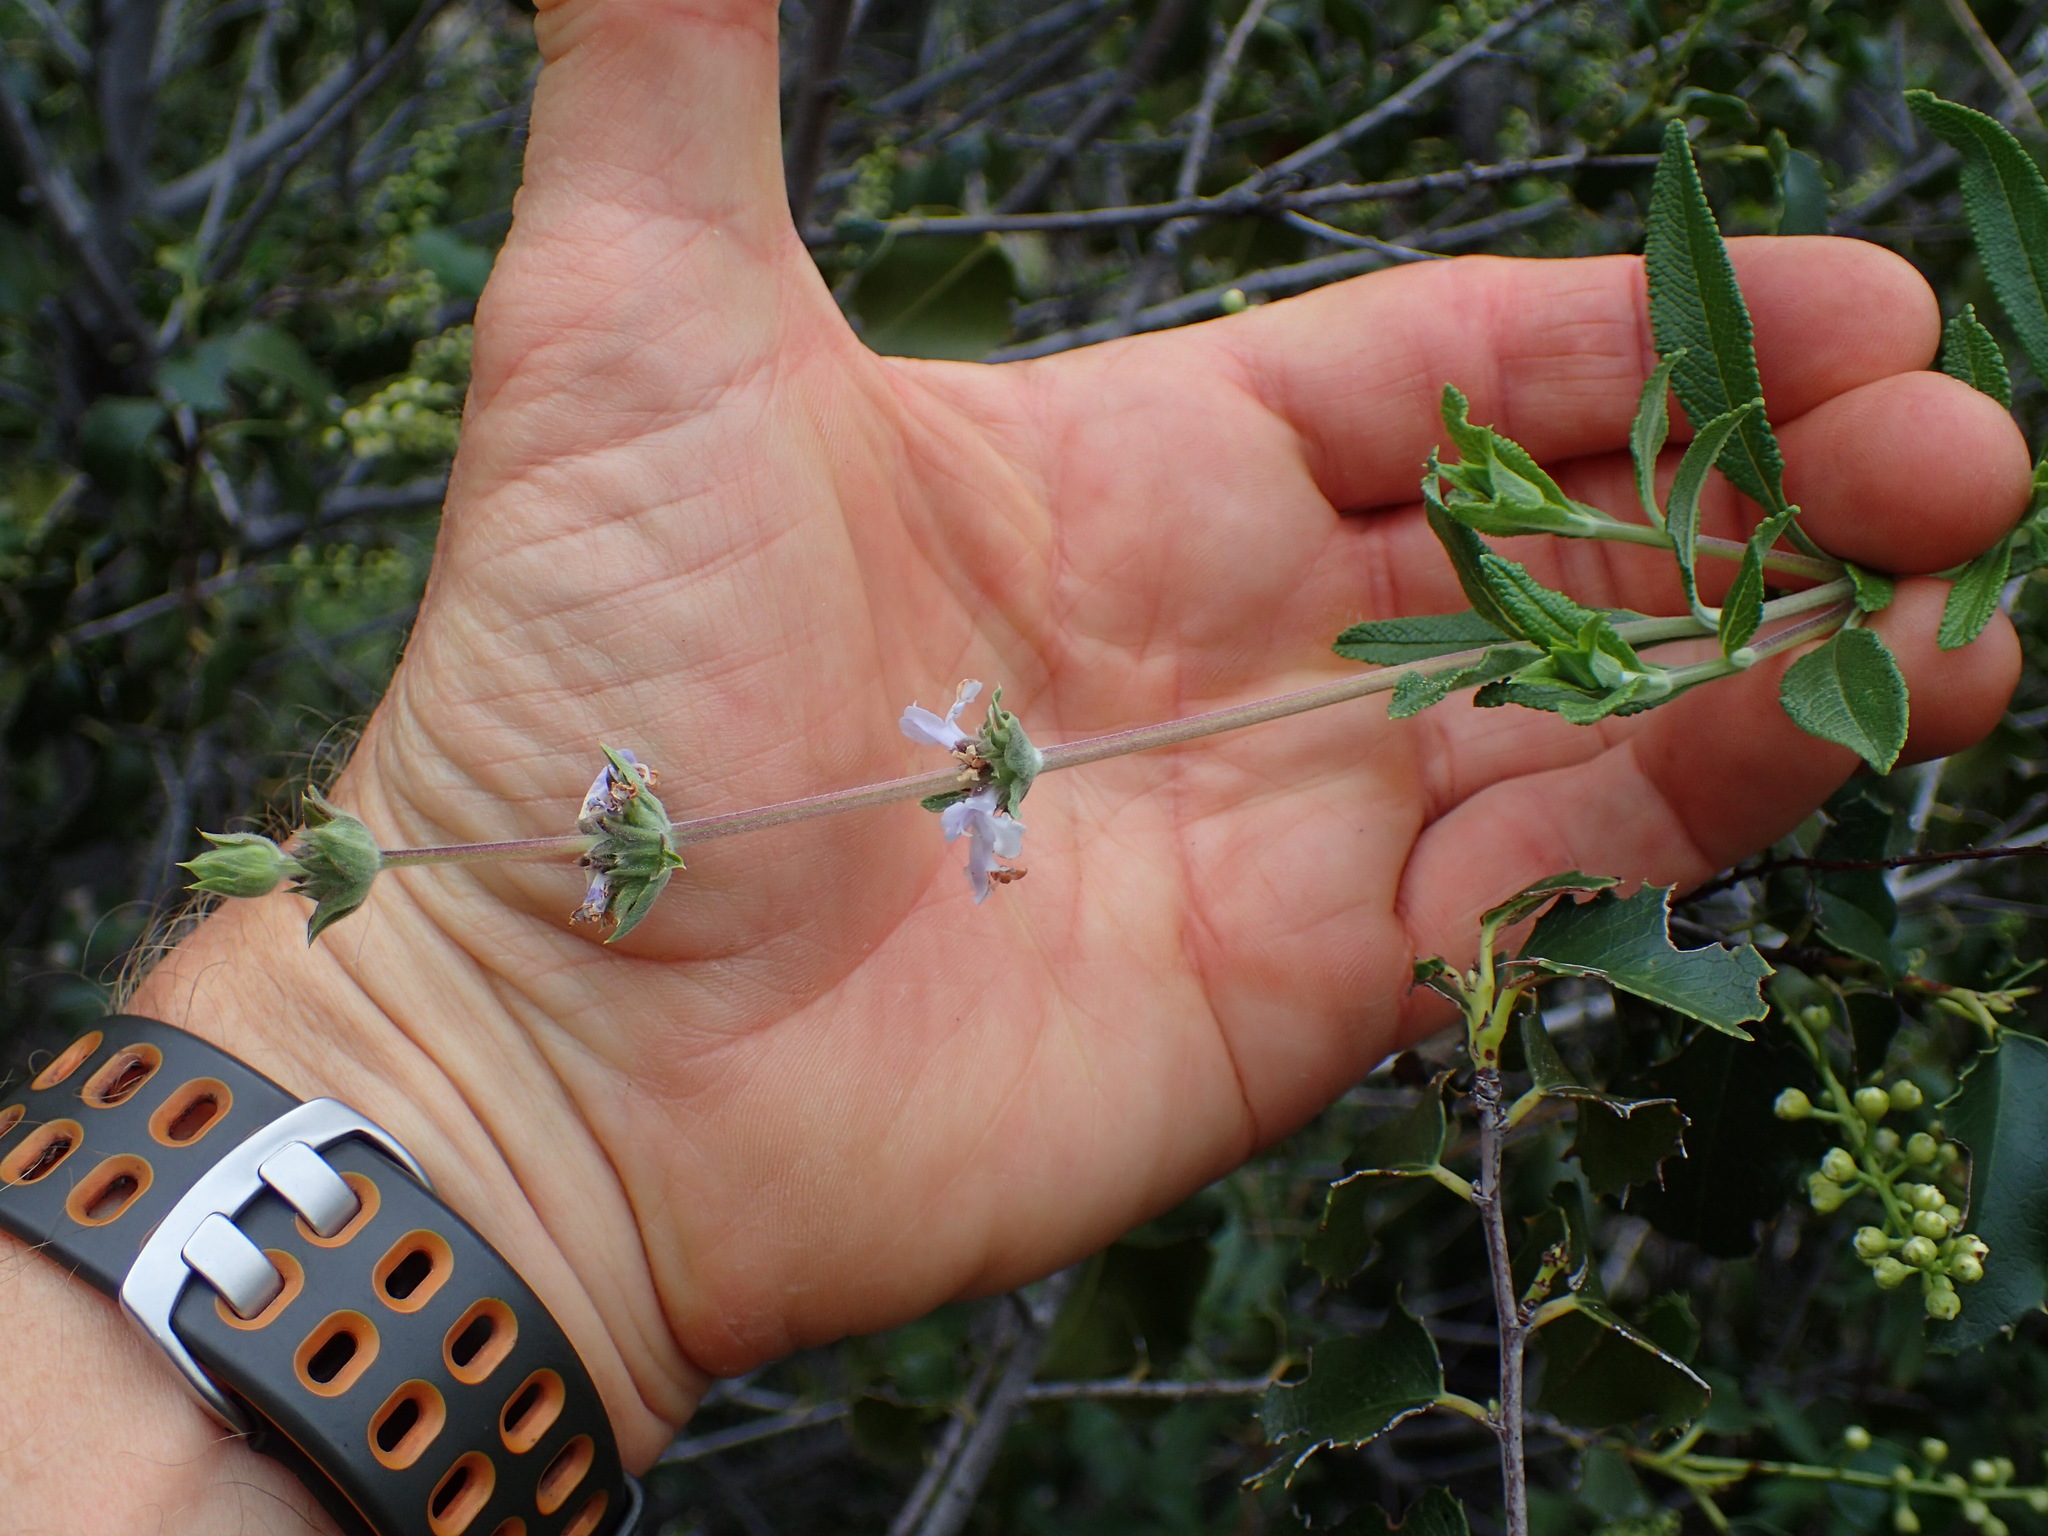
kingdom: Plantae
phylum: Tracheophyta
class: Magnoliopsida
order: Lamiales
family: Lamiaceae
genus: Salvia
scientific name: Salvia mellifera
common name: Black sage
